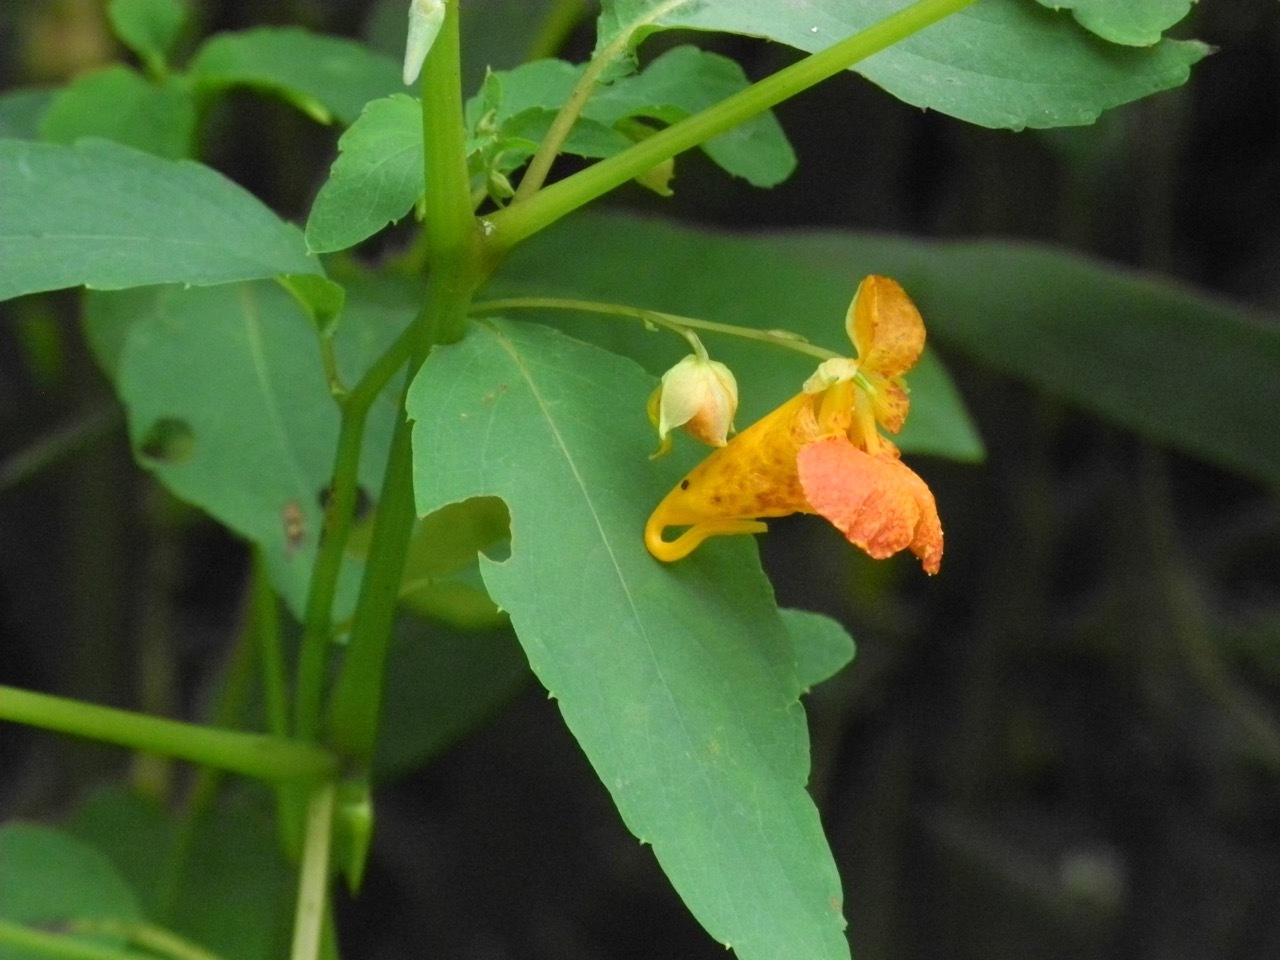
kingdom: Plantae
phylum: Tracheophyta
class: Magnoliopsida
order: Ericales
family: Balsaminaceae
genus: Impatiens
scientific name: Impatiens capensis
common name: Orange balsam
